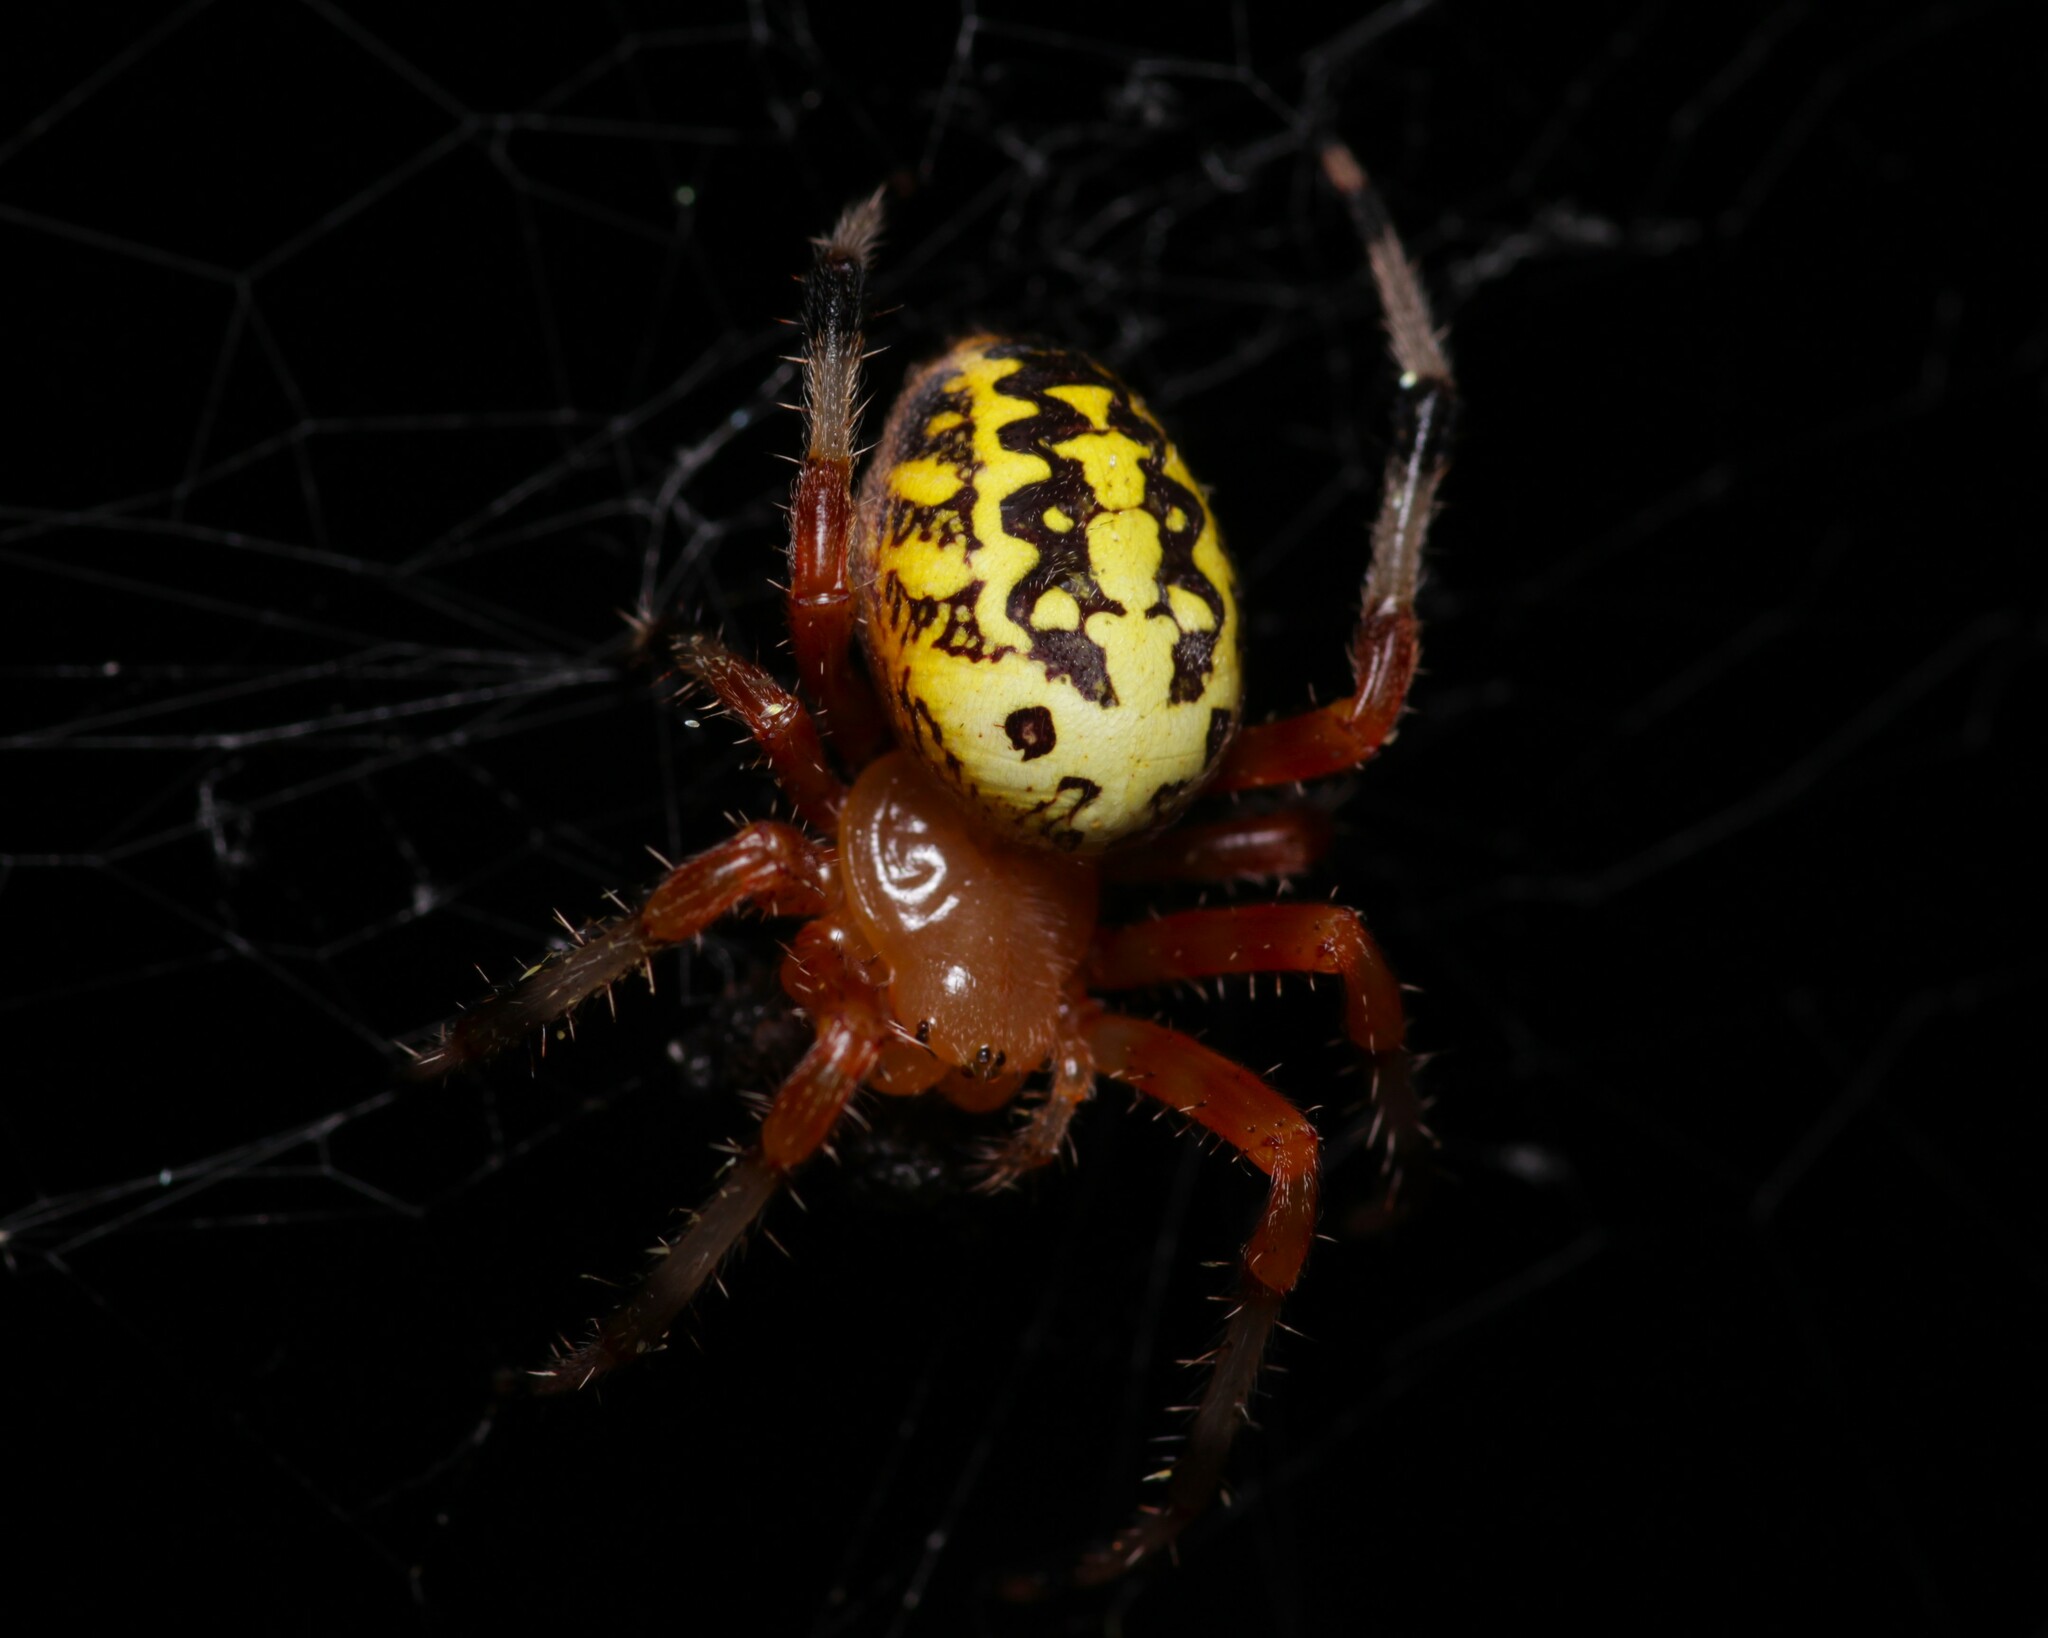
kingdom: Animalia
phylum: Arthropoda
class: Arachnida
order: Araneae
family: Araneidae
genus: Araneus
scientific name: Araneus marmoreus
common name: Marbled orbweaver
